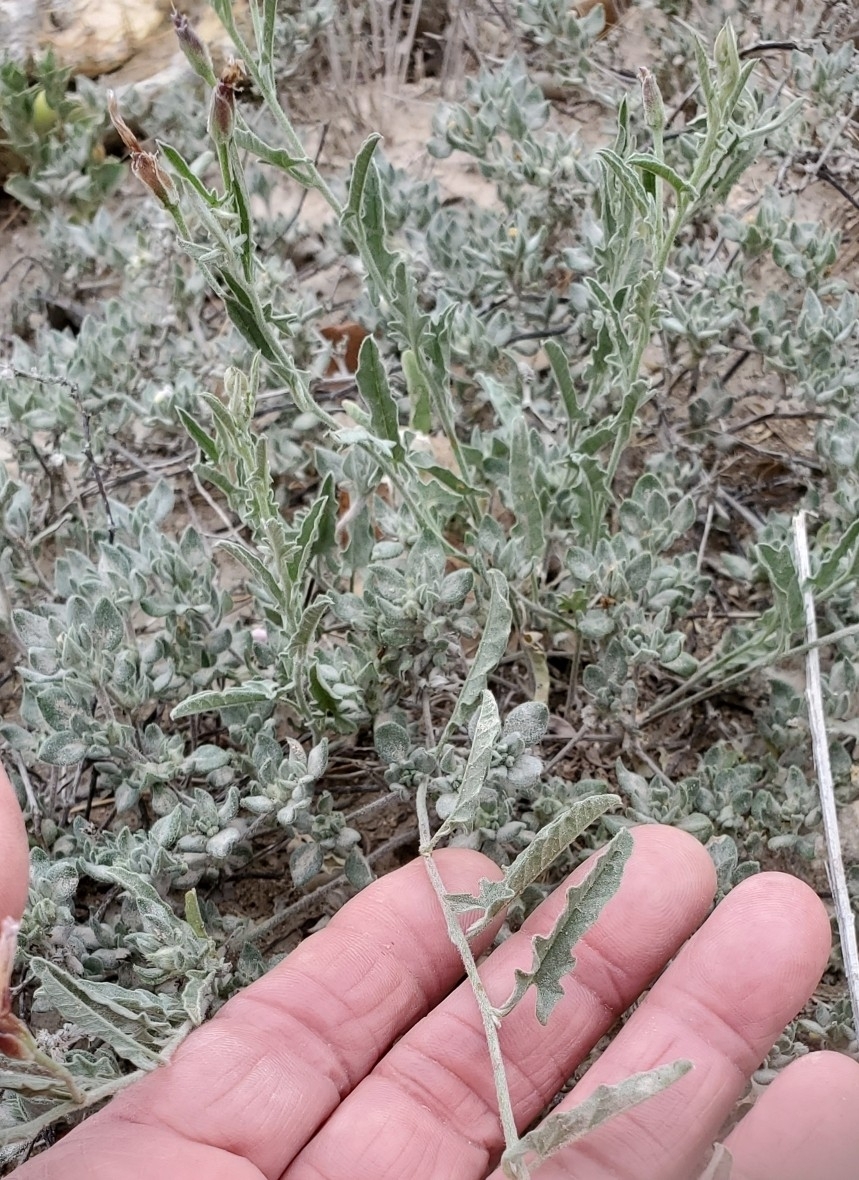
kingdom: Plantae
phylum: Tracheophyta
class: Magnoliopsida
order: Solanales
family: Convolvulaceae
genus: Convolvulus
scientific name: Convolvulus equitans
